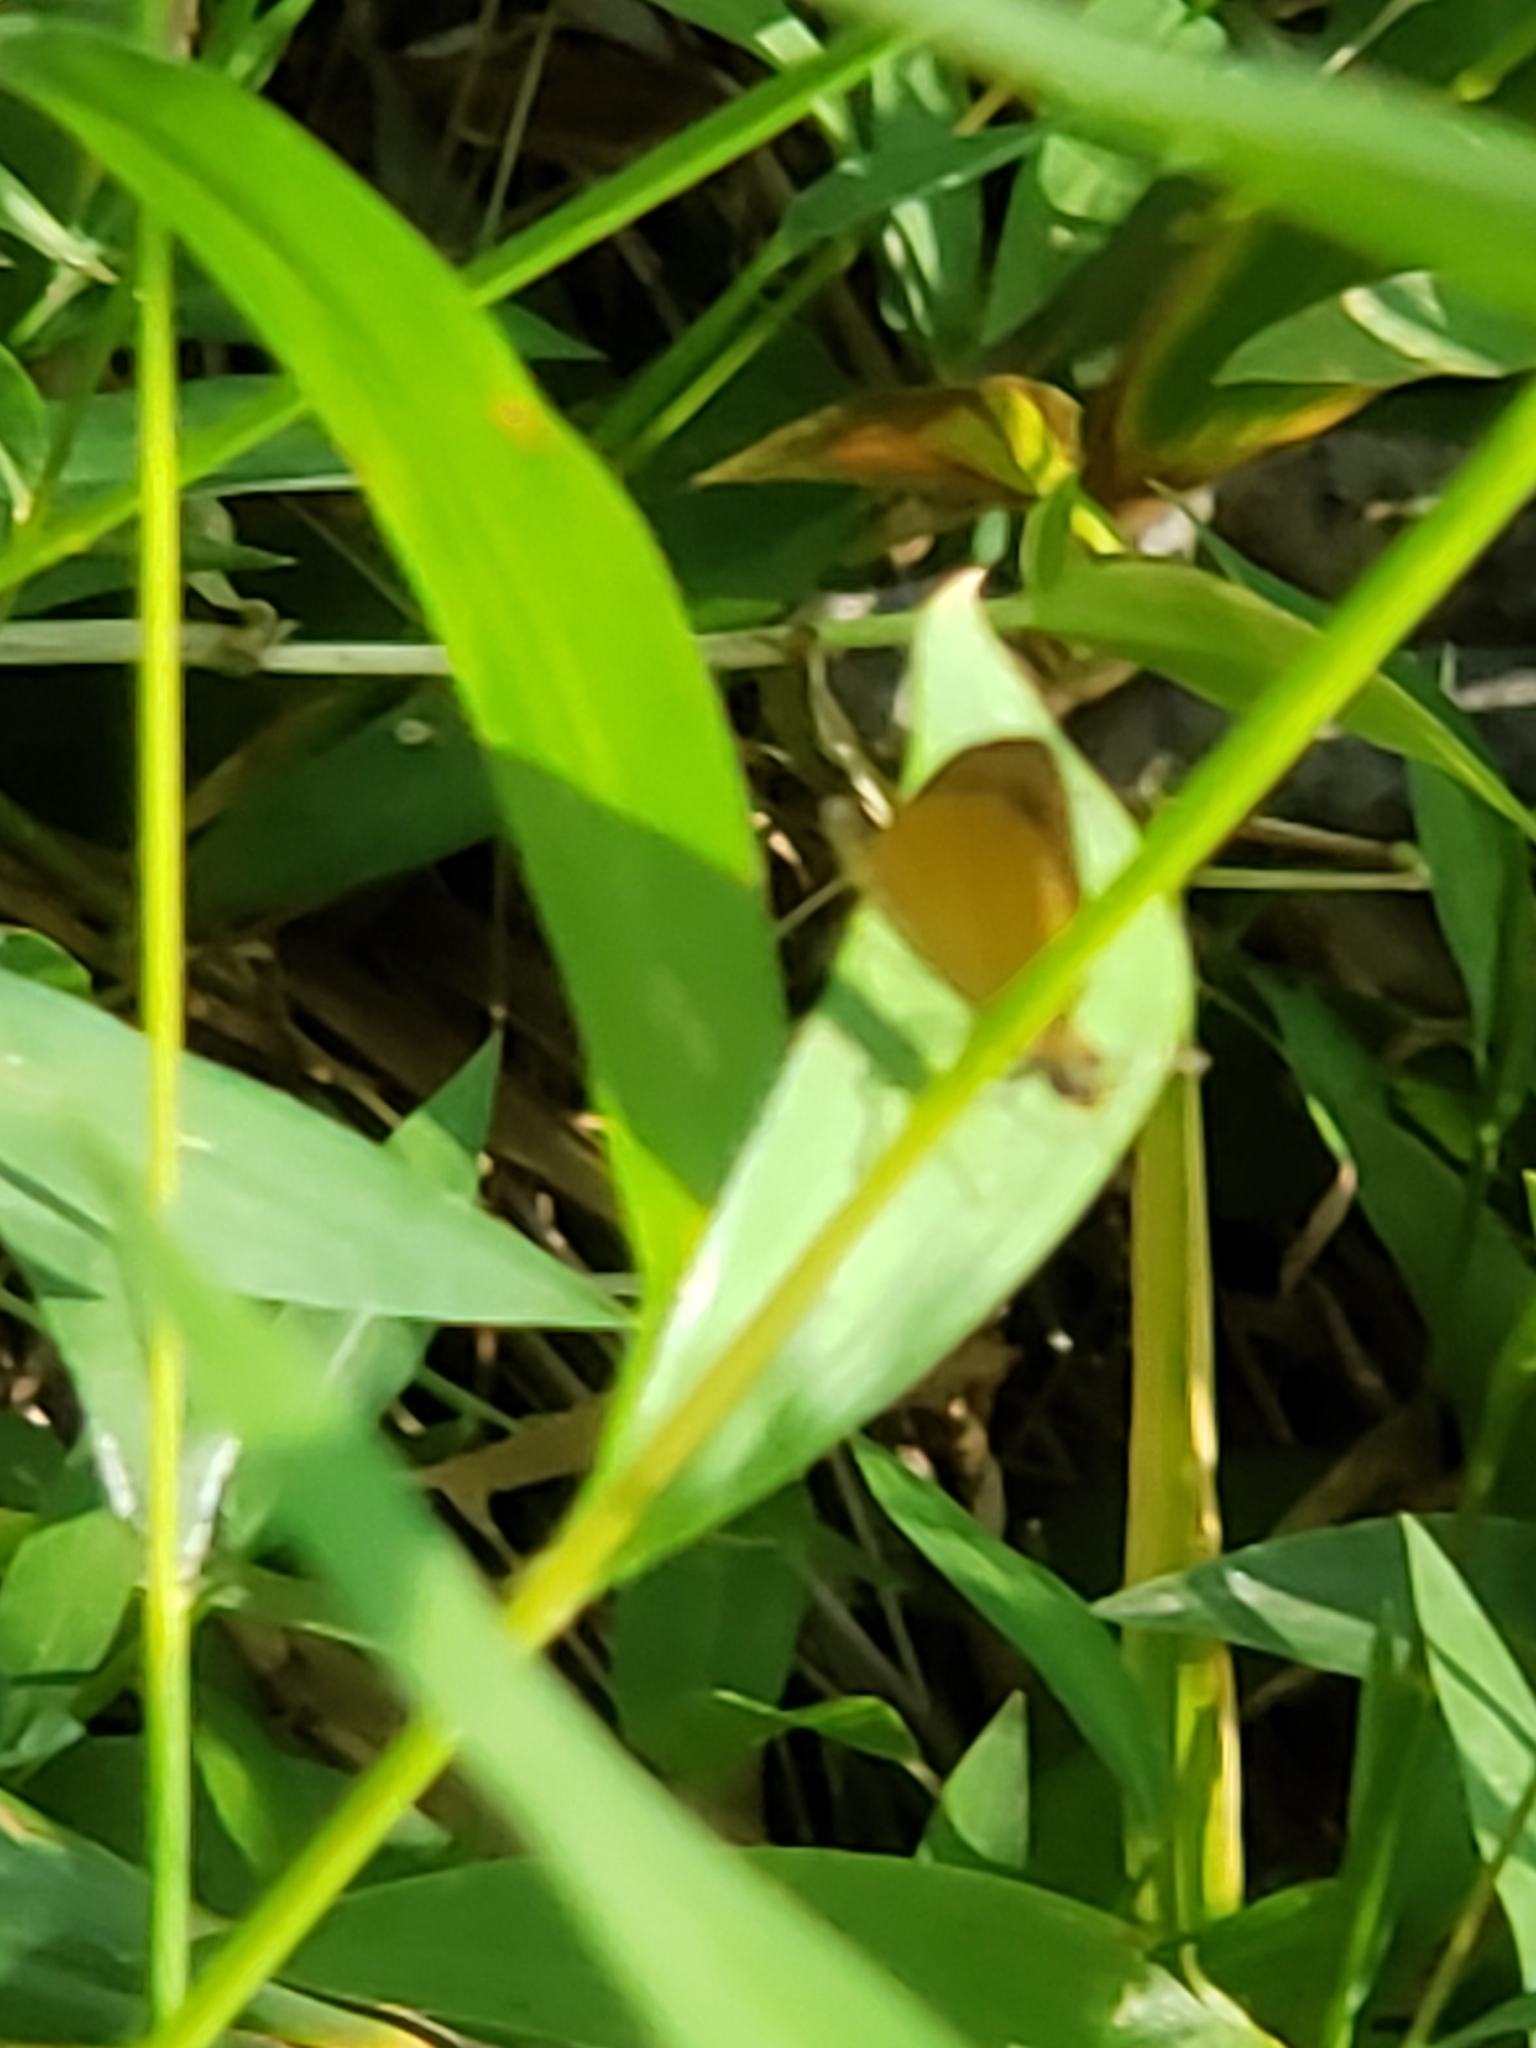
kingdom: Animalia
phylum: Arthropoda
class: Insecta
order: Lepidoptera
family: Hesperiidae
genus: Ancyloxypha
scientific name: Ancyloxypha numitor
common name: Least skipper
